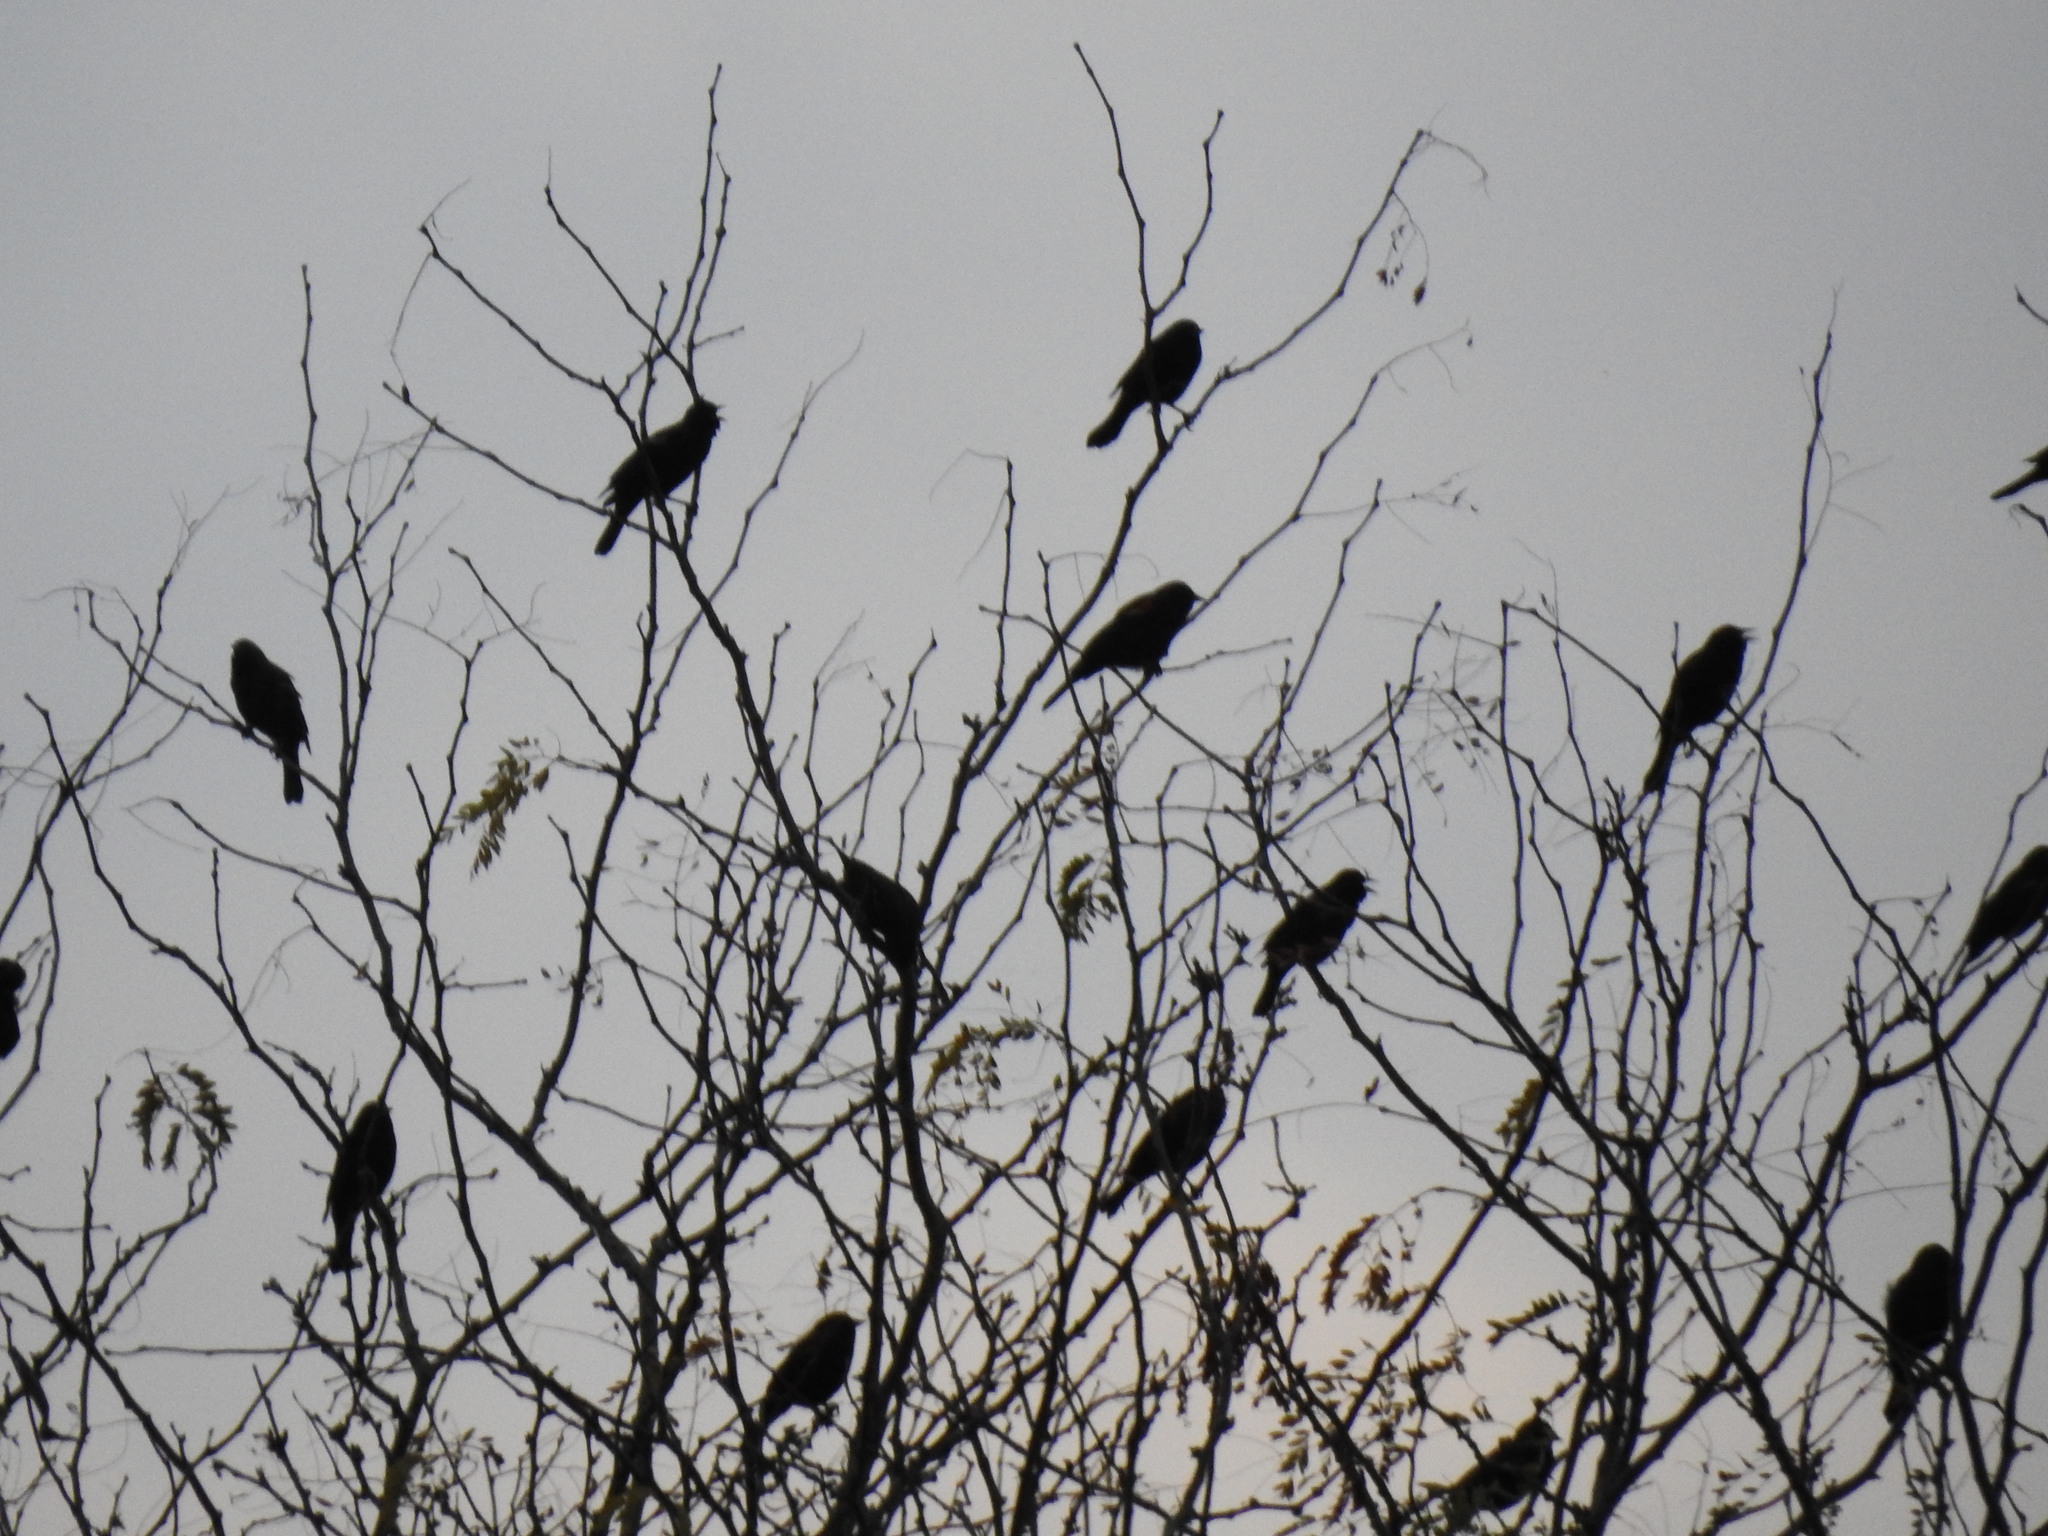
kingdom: Animalia
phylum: Chordata
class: Aves
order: Passeriformes
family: Icteridae
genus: Agelaius
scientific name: Agelaius phoeniceus
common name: Red-winged blackbird
